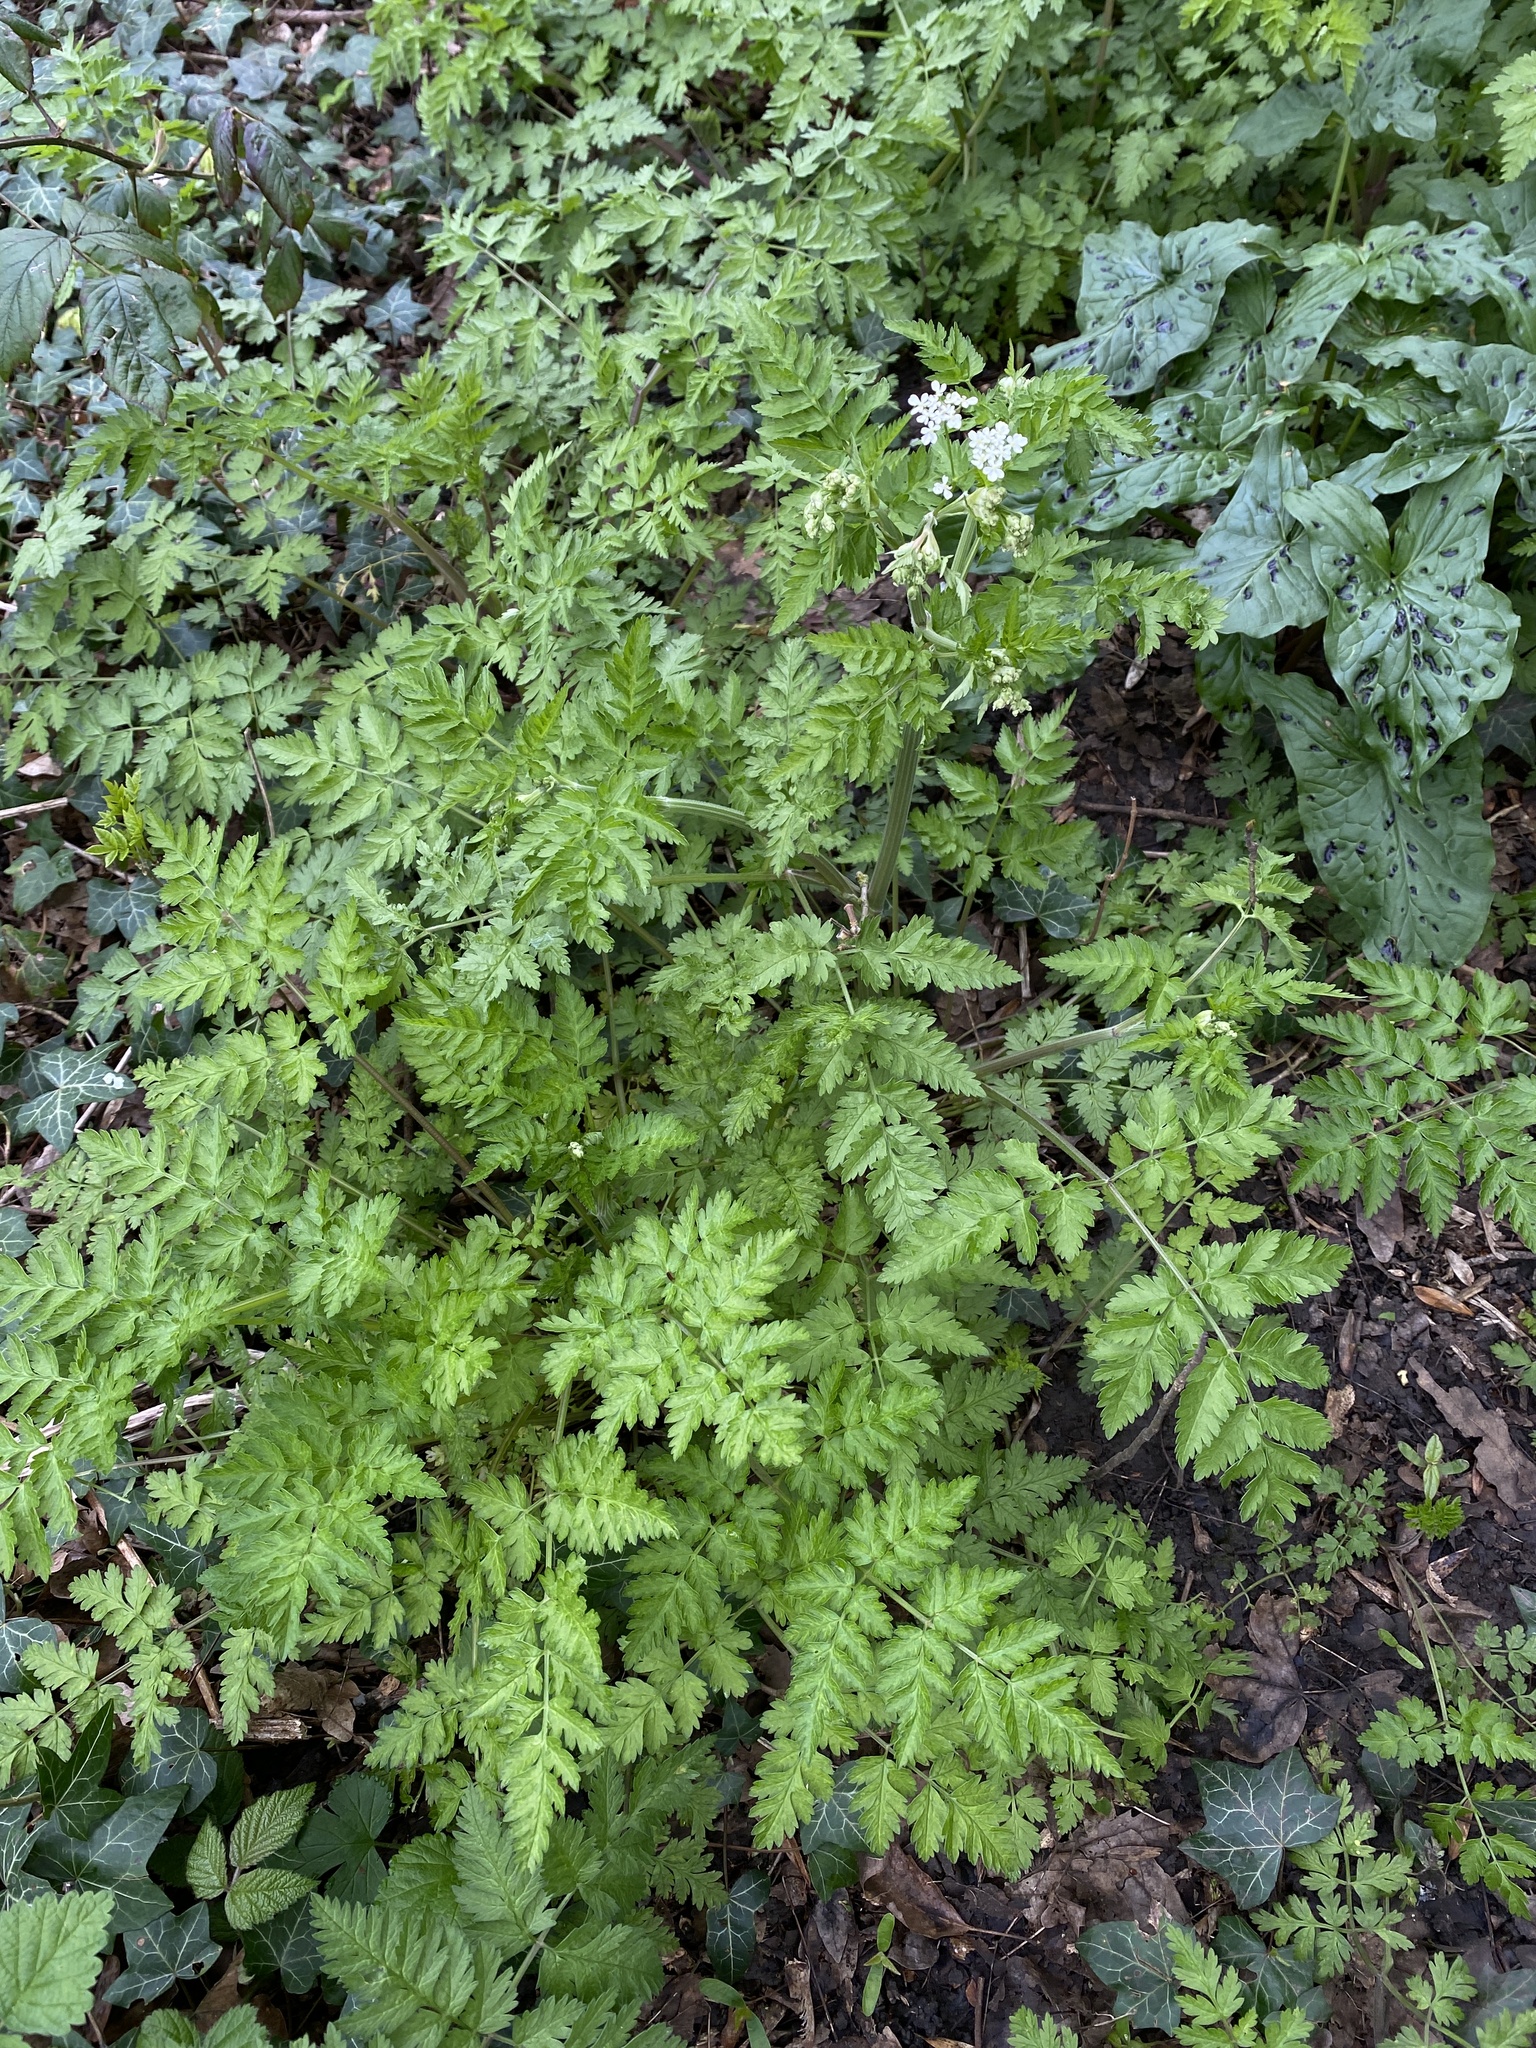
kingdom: Plantae
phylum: Tracheophyta
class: Magnoliopsida
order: Apiales
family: Apiaceae
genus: Anthriscus
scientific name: Anthriscus sylvestris
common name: Cow parsley
